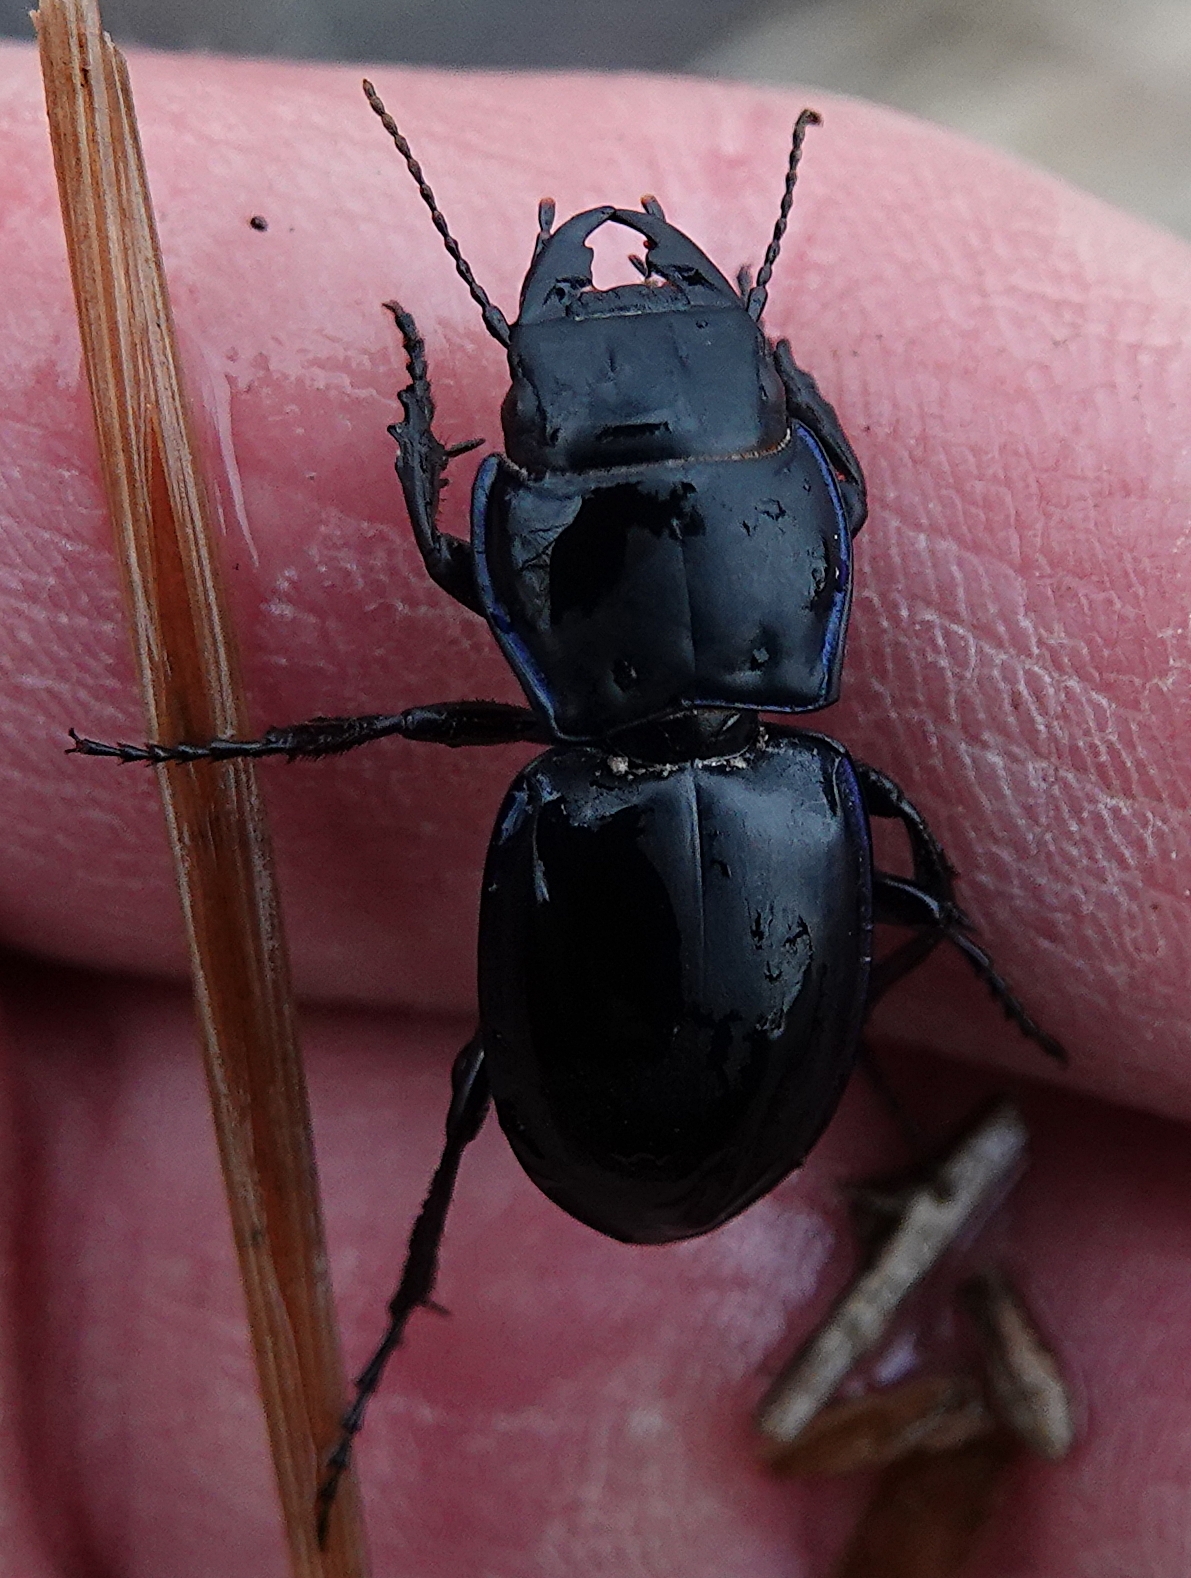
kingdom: Animalia
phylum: Arthropoda
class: Insecta
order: Coleoptera
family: Carabidae
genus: Pasimachus
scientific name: Pasimachus elongatus
